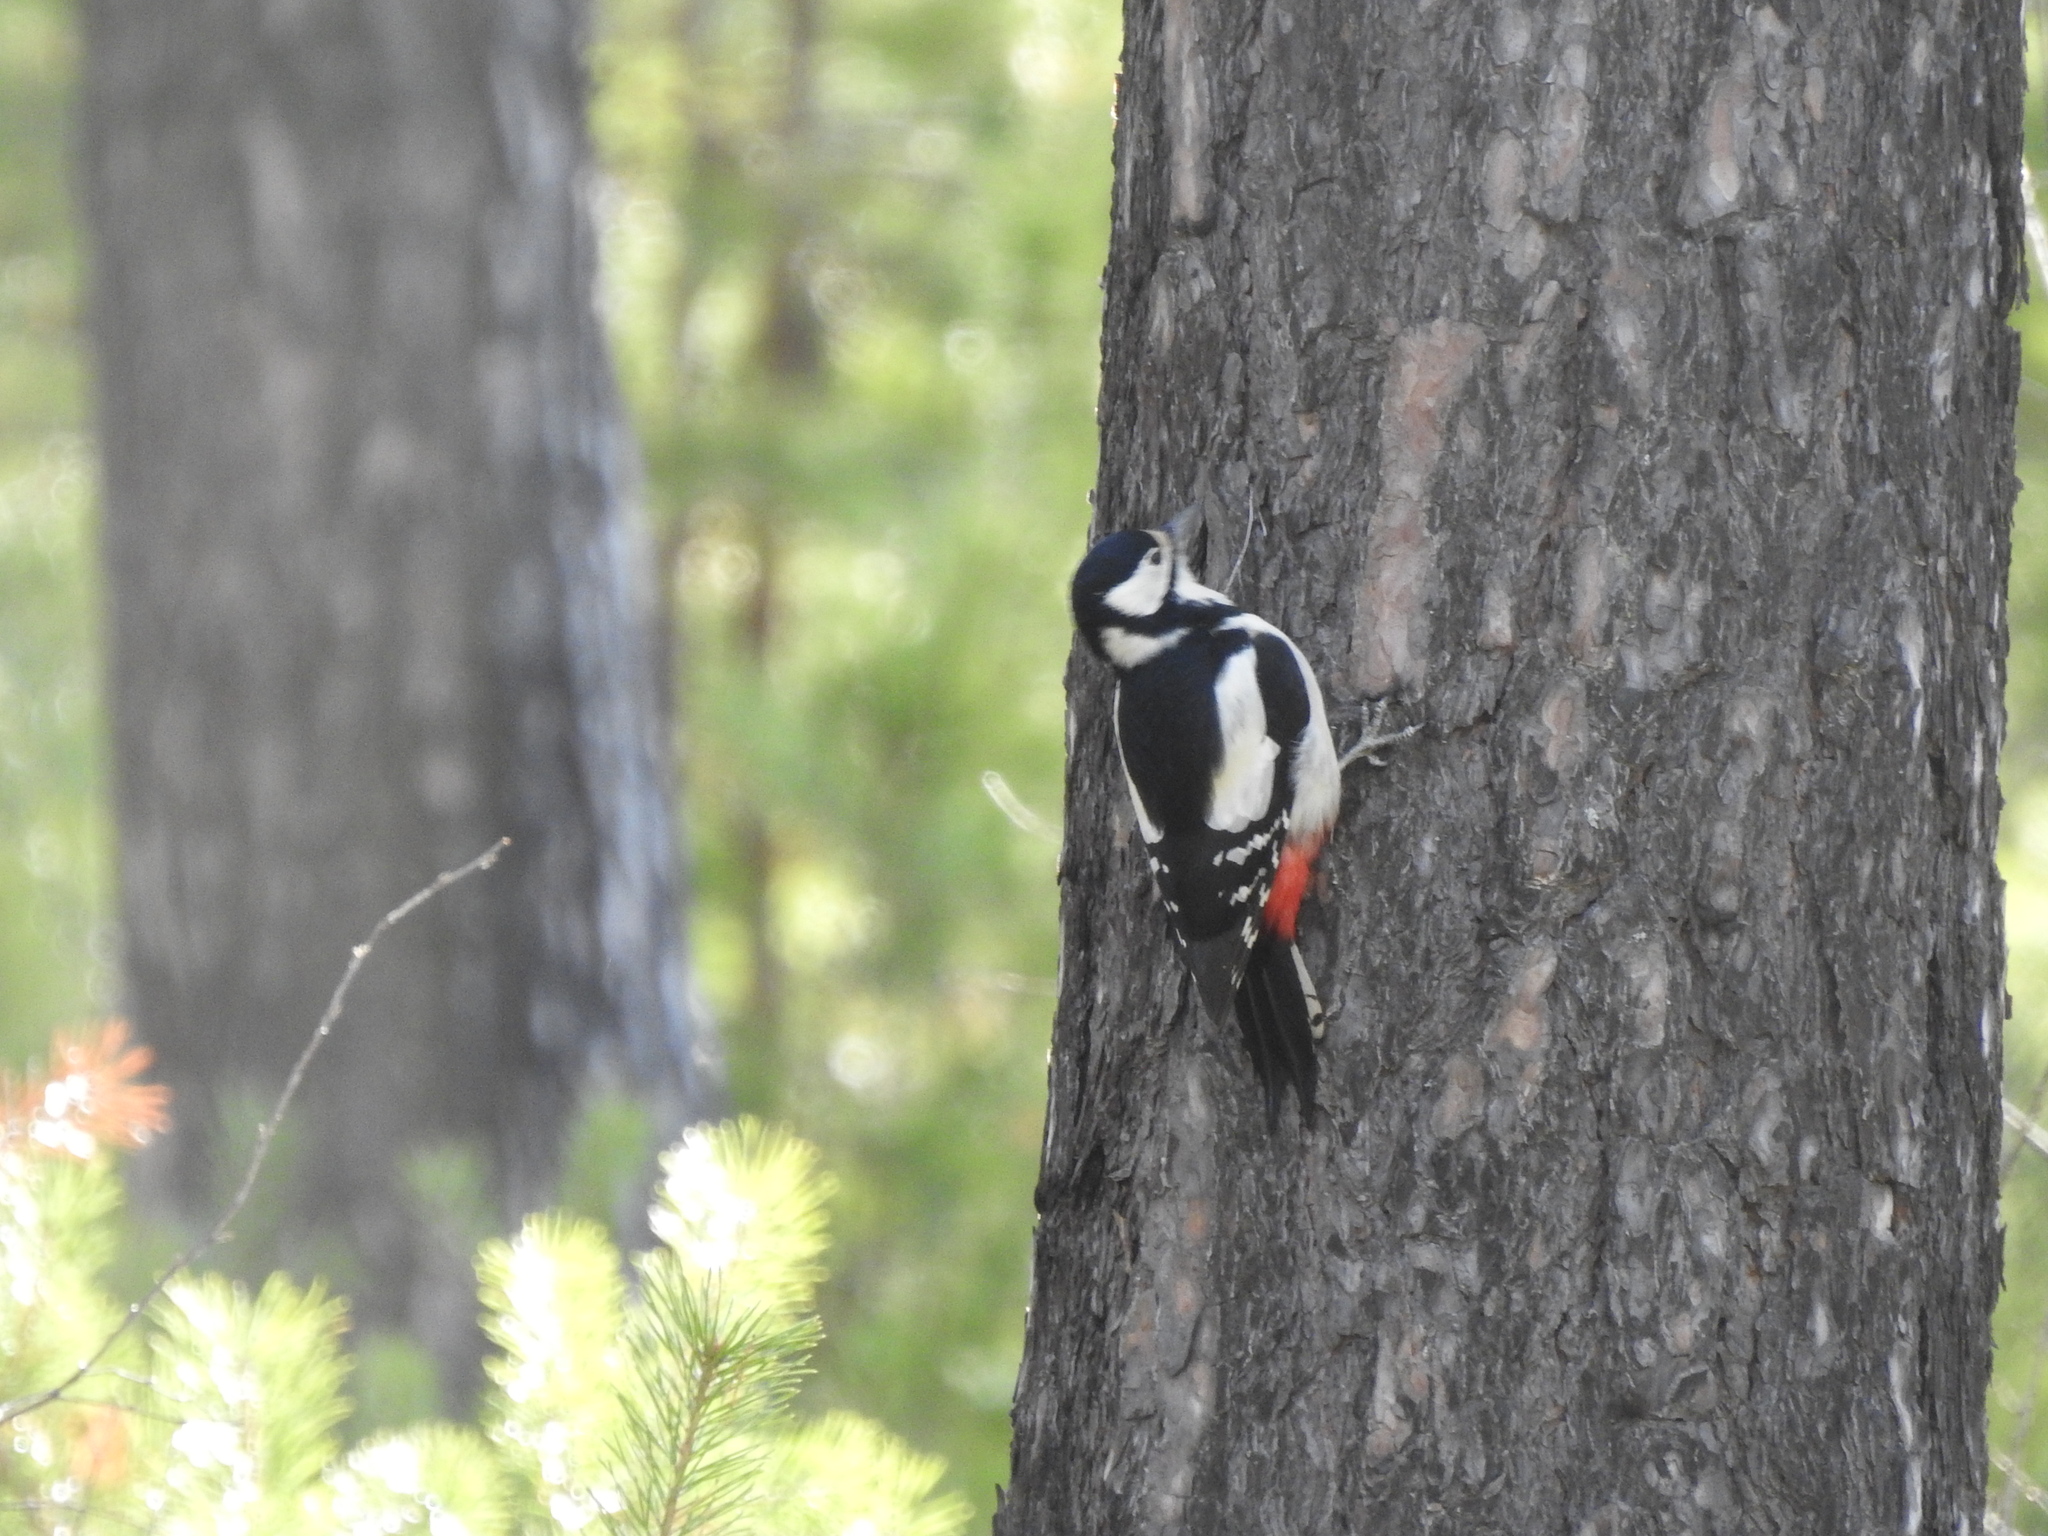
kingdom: Animalia
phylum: Chordata
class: Aves
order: Piciformes
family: Picidae
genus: Dendrocopos
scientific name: Dendrocopos major
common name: Great spotted woodpecker
